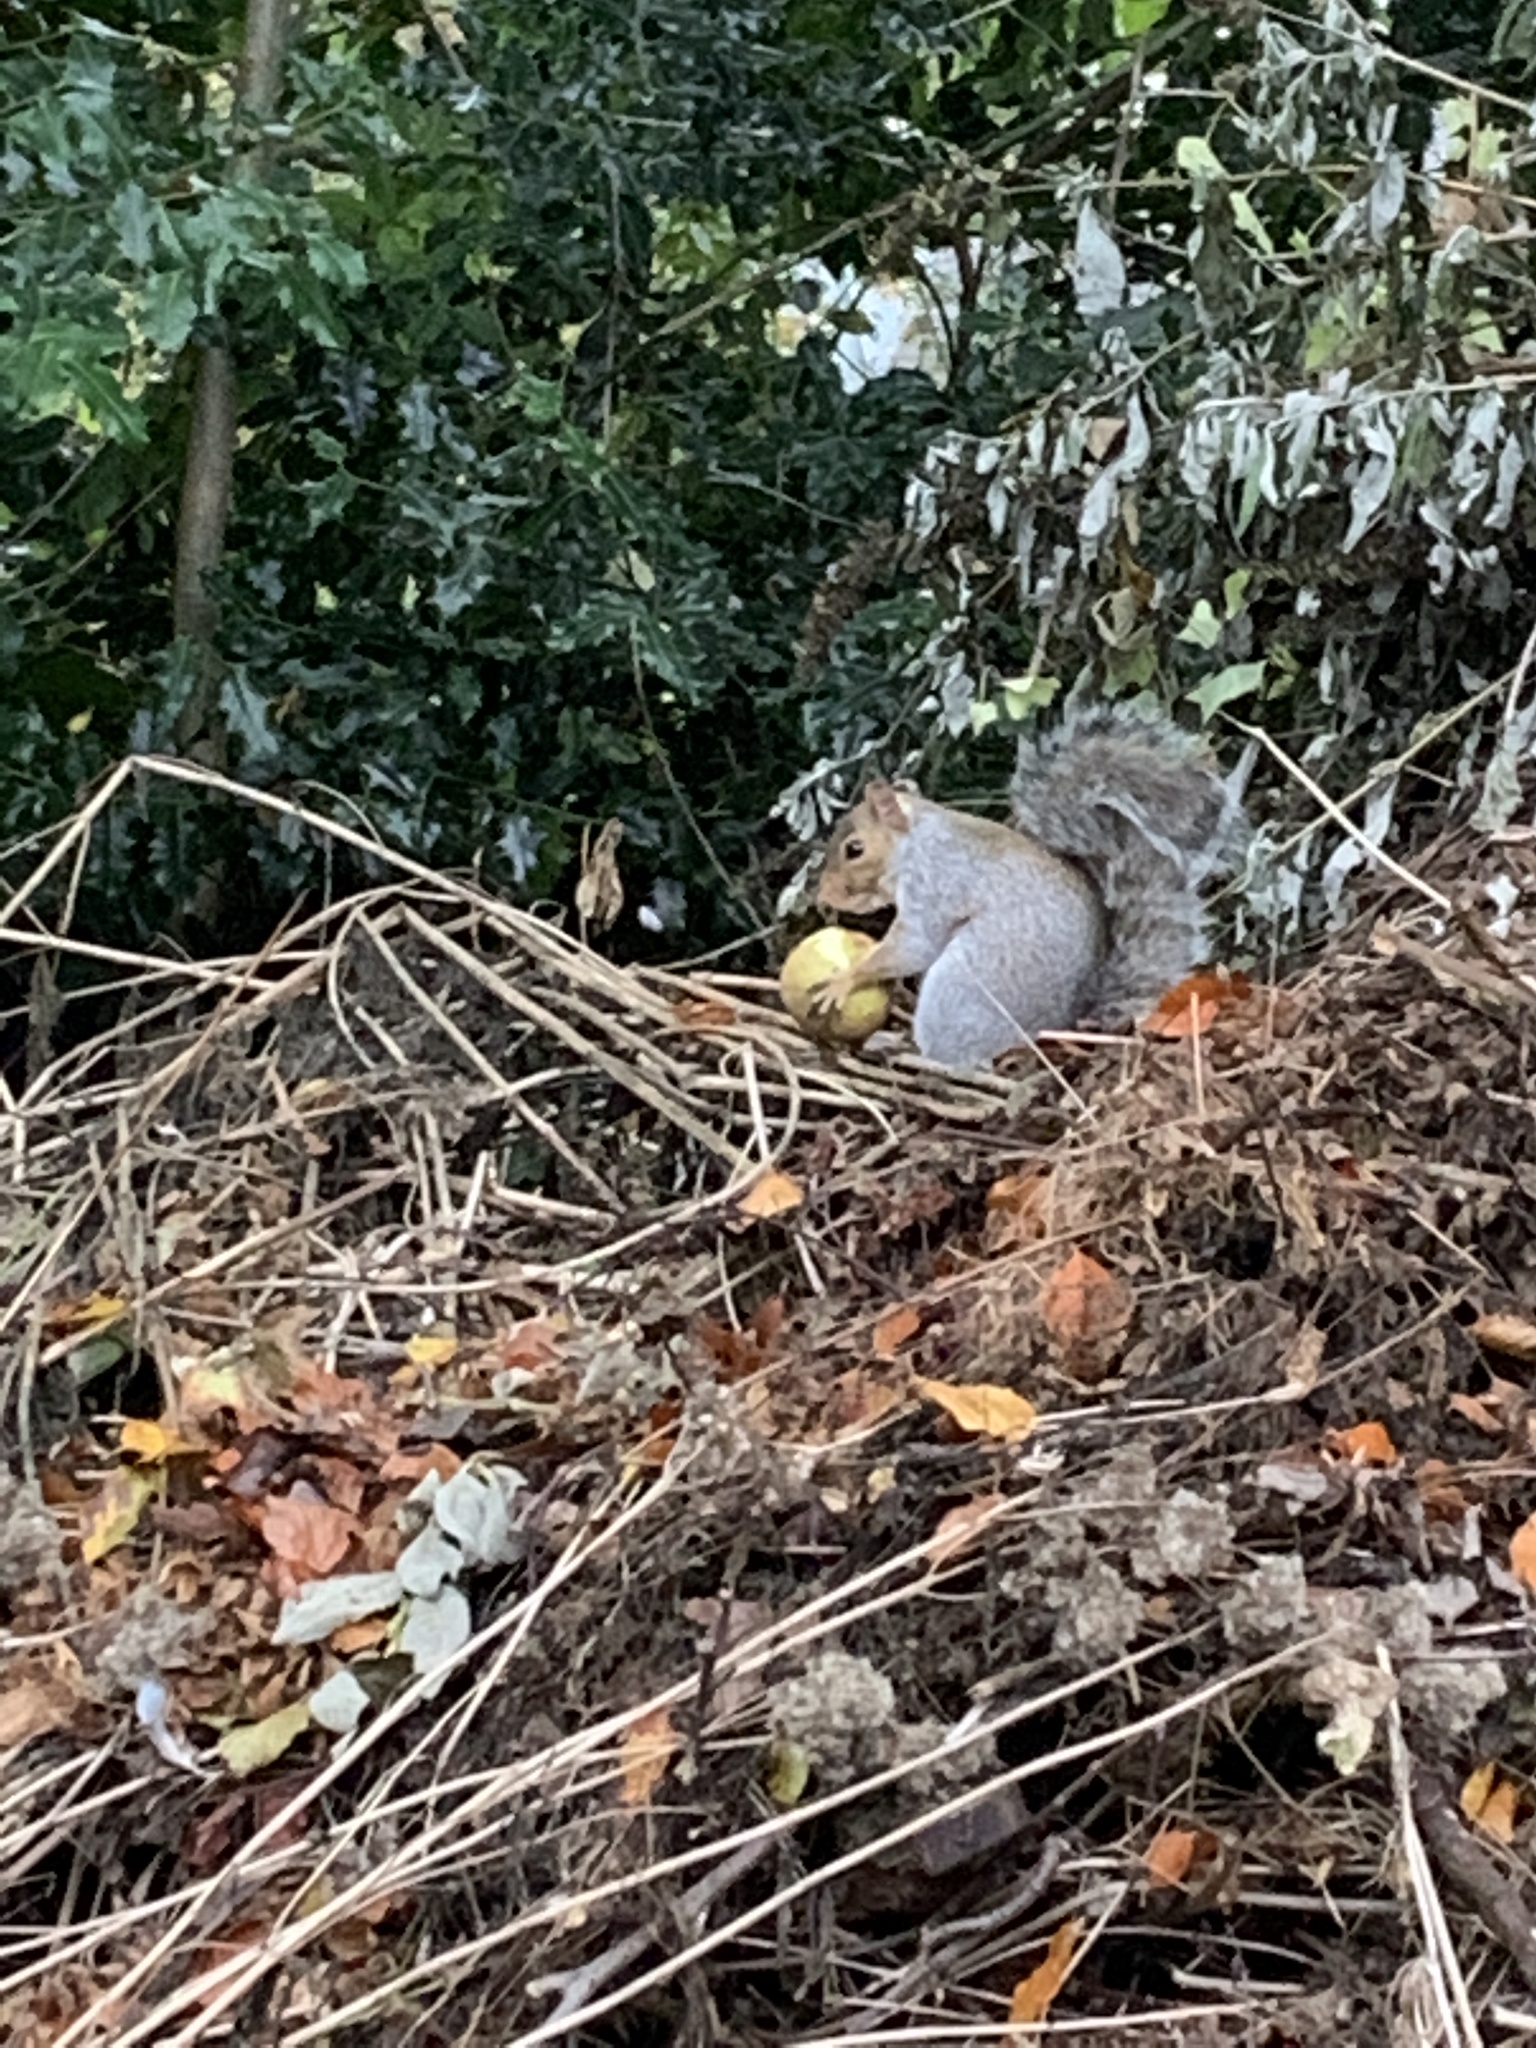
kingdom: Animalia
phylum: Chordata
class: Mammalia
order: Rodentia
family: Sciuridae
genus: Sciurus
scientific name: Sciurus carolinensis
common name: Eastern gray squirrel
